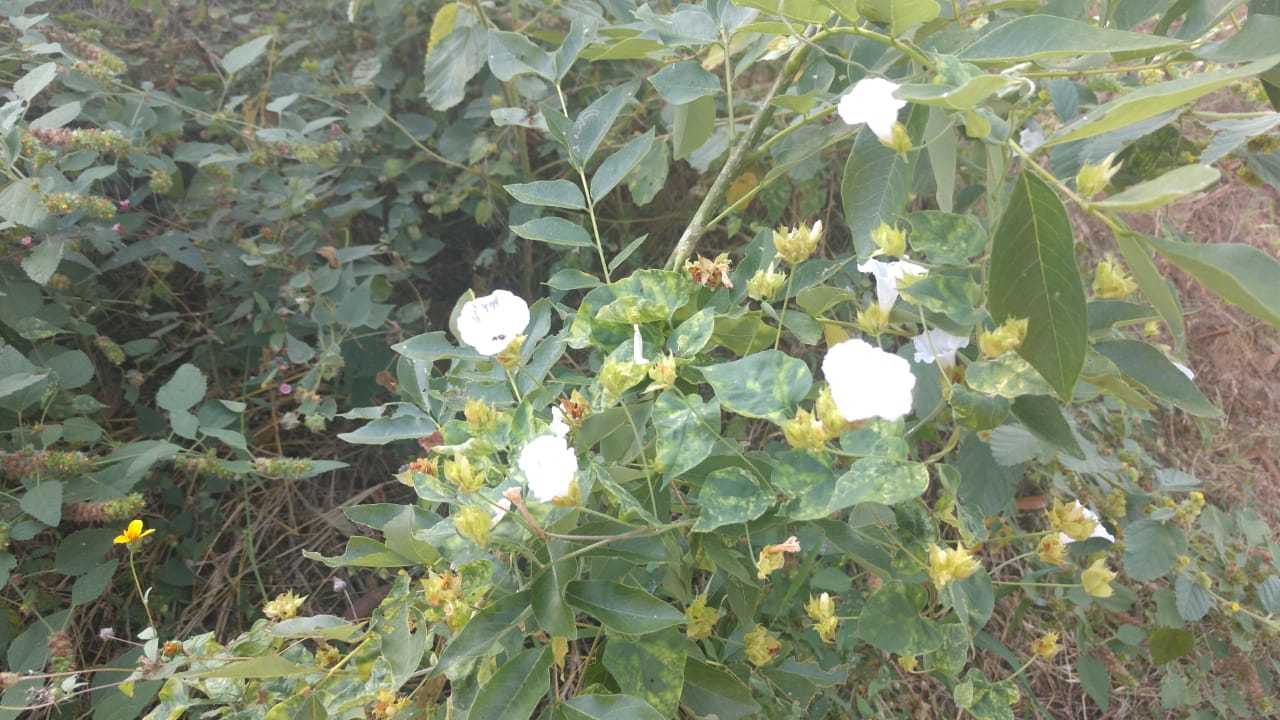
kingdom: Plantae
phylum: Tracheophyta
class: Magnoliopsida
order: Solanales
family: Convolvulaceae
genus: Jacquemontia
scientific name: Jacquemontia mexicana
